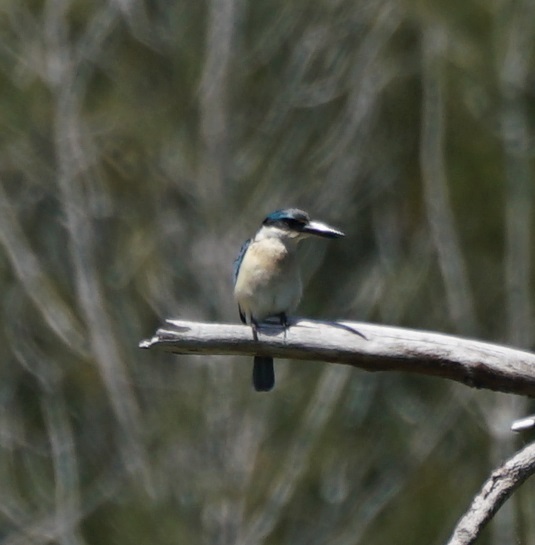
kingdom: Animalia
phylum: Chordata
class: Aves
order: Coraciiformes
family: Alcedinidae
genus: Todiramphus
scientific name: Todiramphus sanctus
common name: Sacred kingfisher
